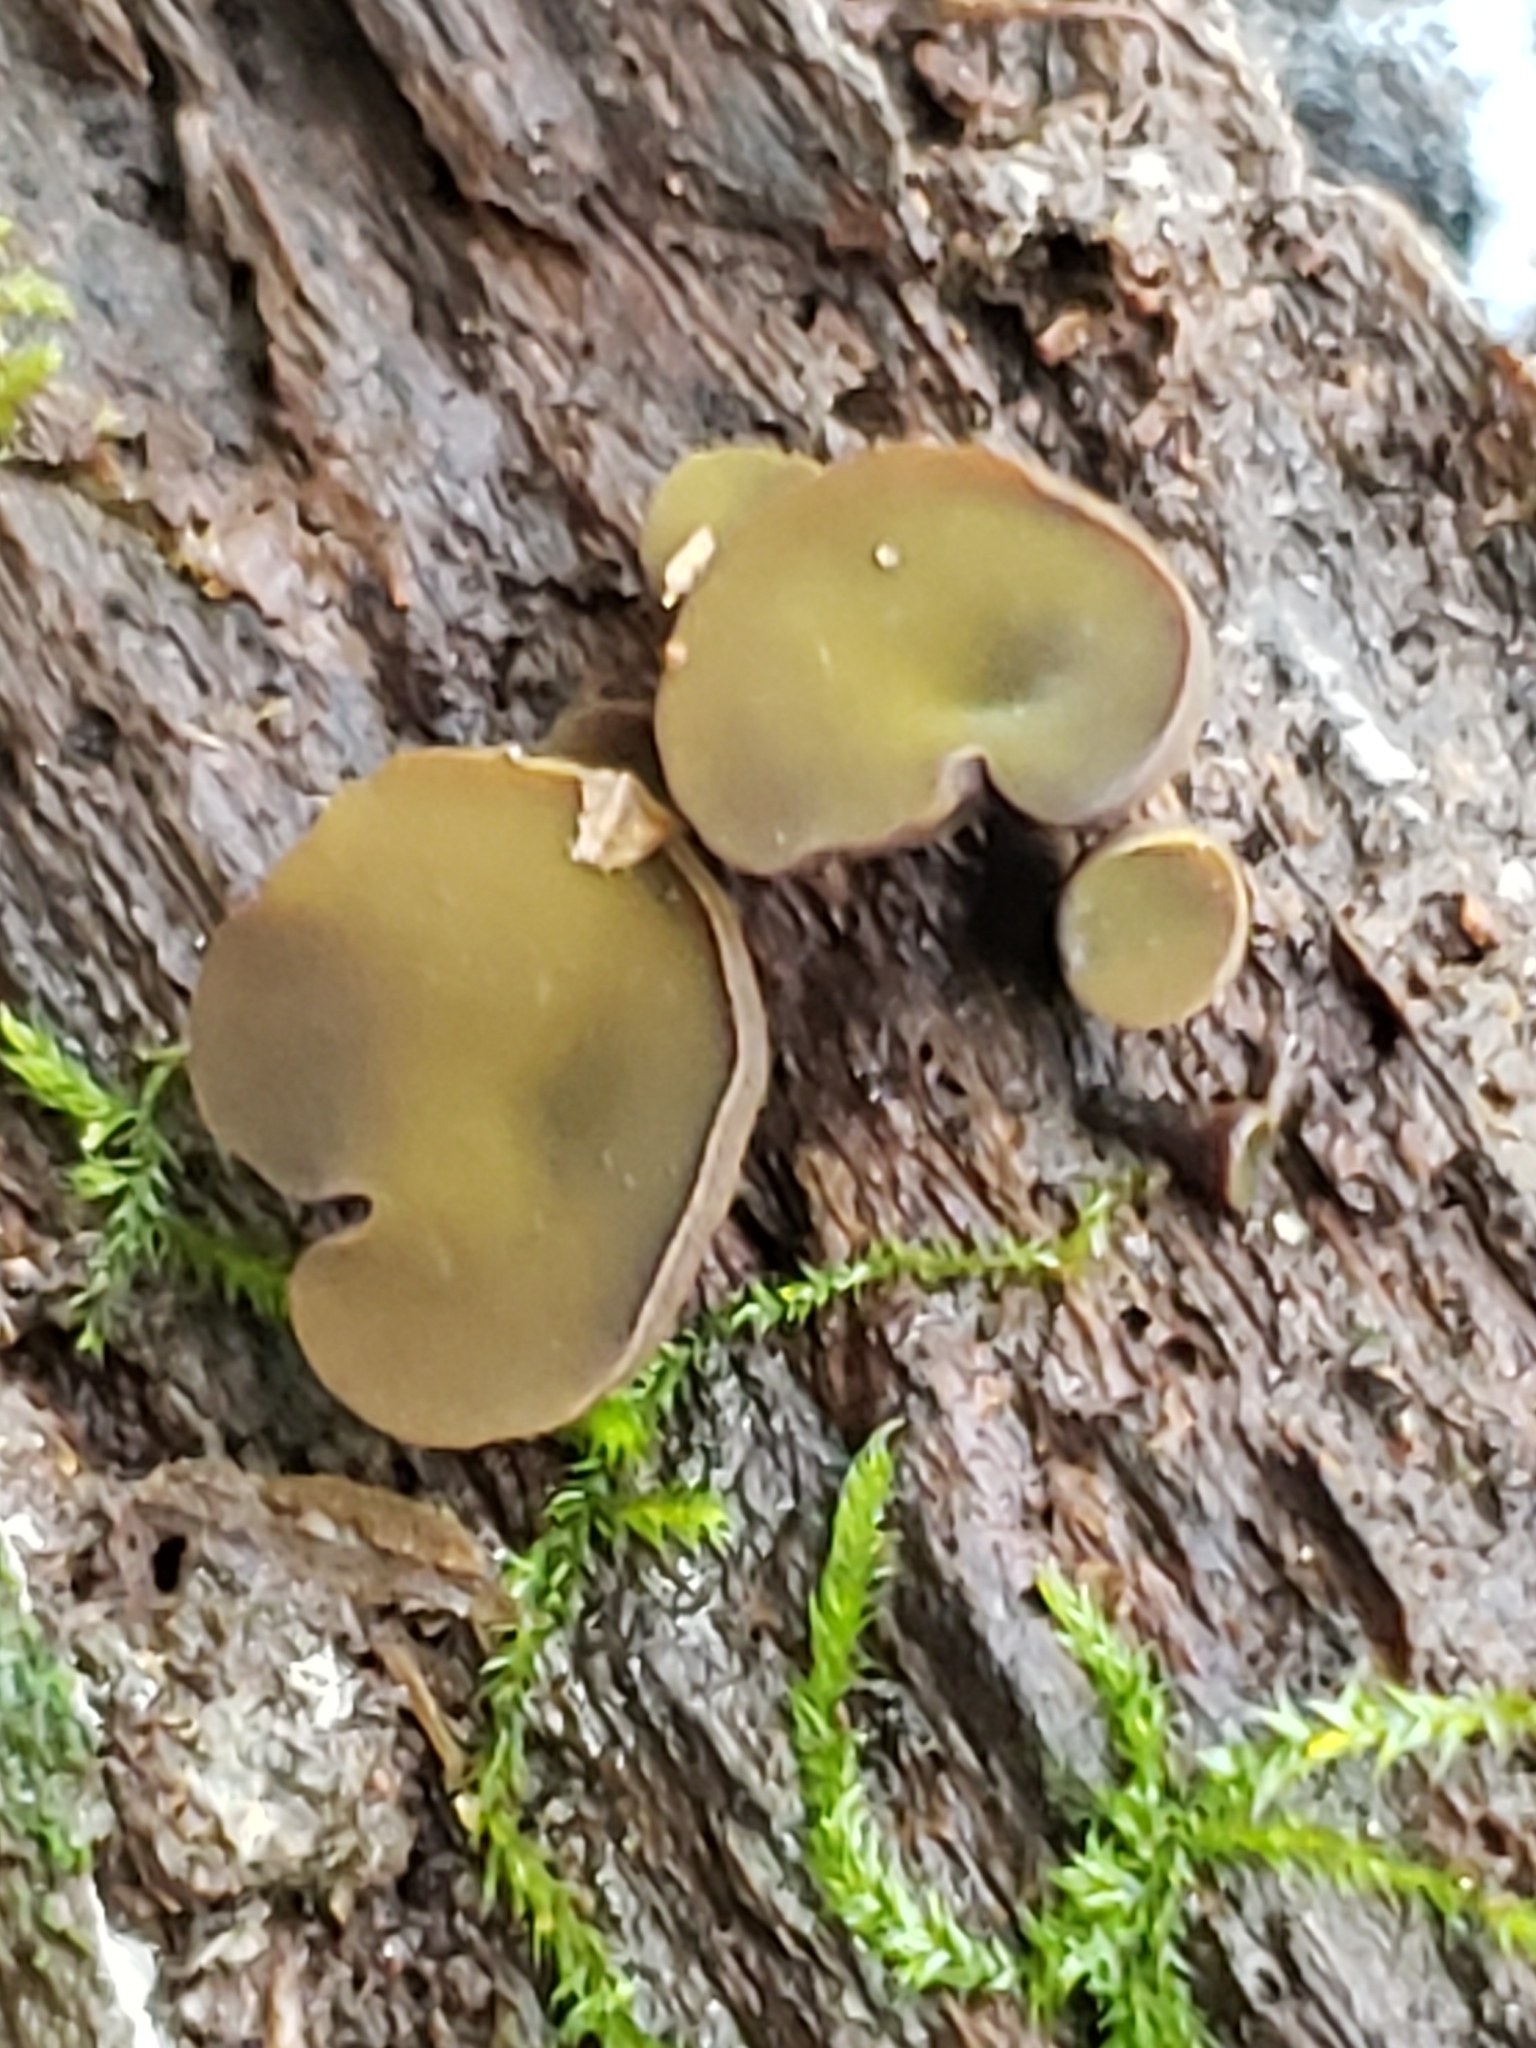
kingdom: Fungi
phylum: Ascomycota
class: Leotiomycetes
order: Helotiales
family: Cenangiaceae
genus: Chlorencoelia
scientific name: Chlorencoelia
